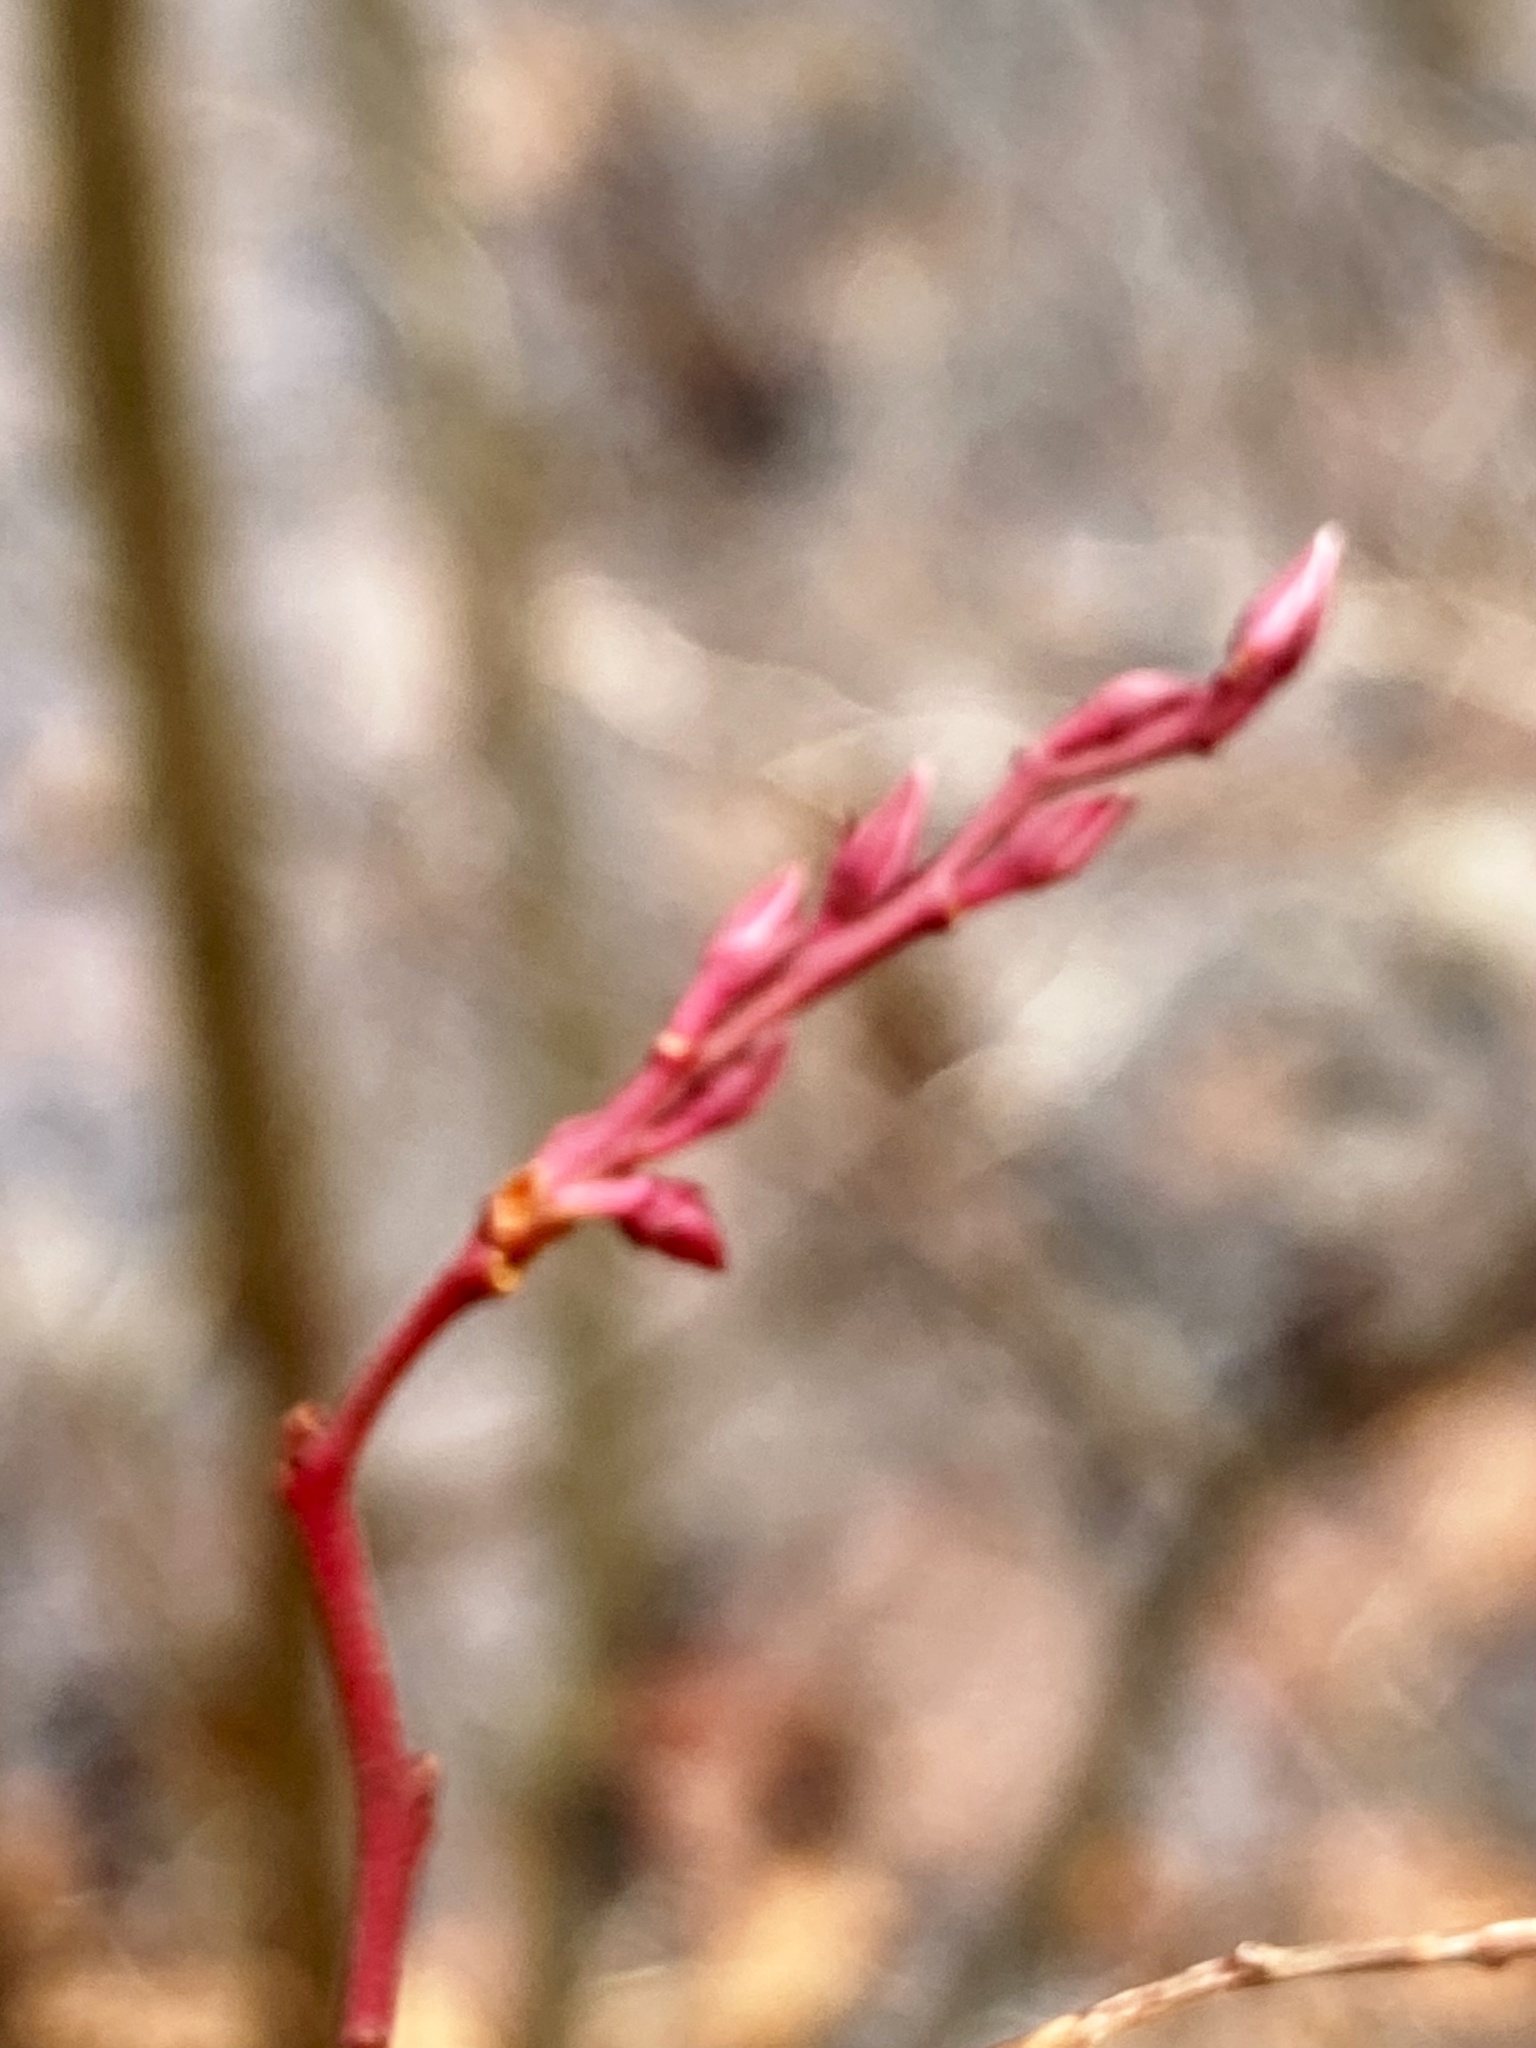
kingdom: Plantae
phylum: Tracheophyta
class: Magnoliopsida
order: Ericales
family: Ericaceae
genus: Eubotrys
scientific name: Eubotrys racemosa
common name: Fetterbush
